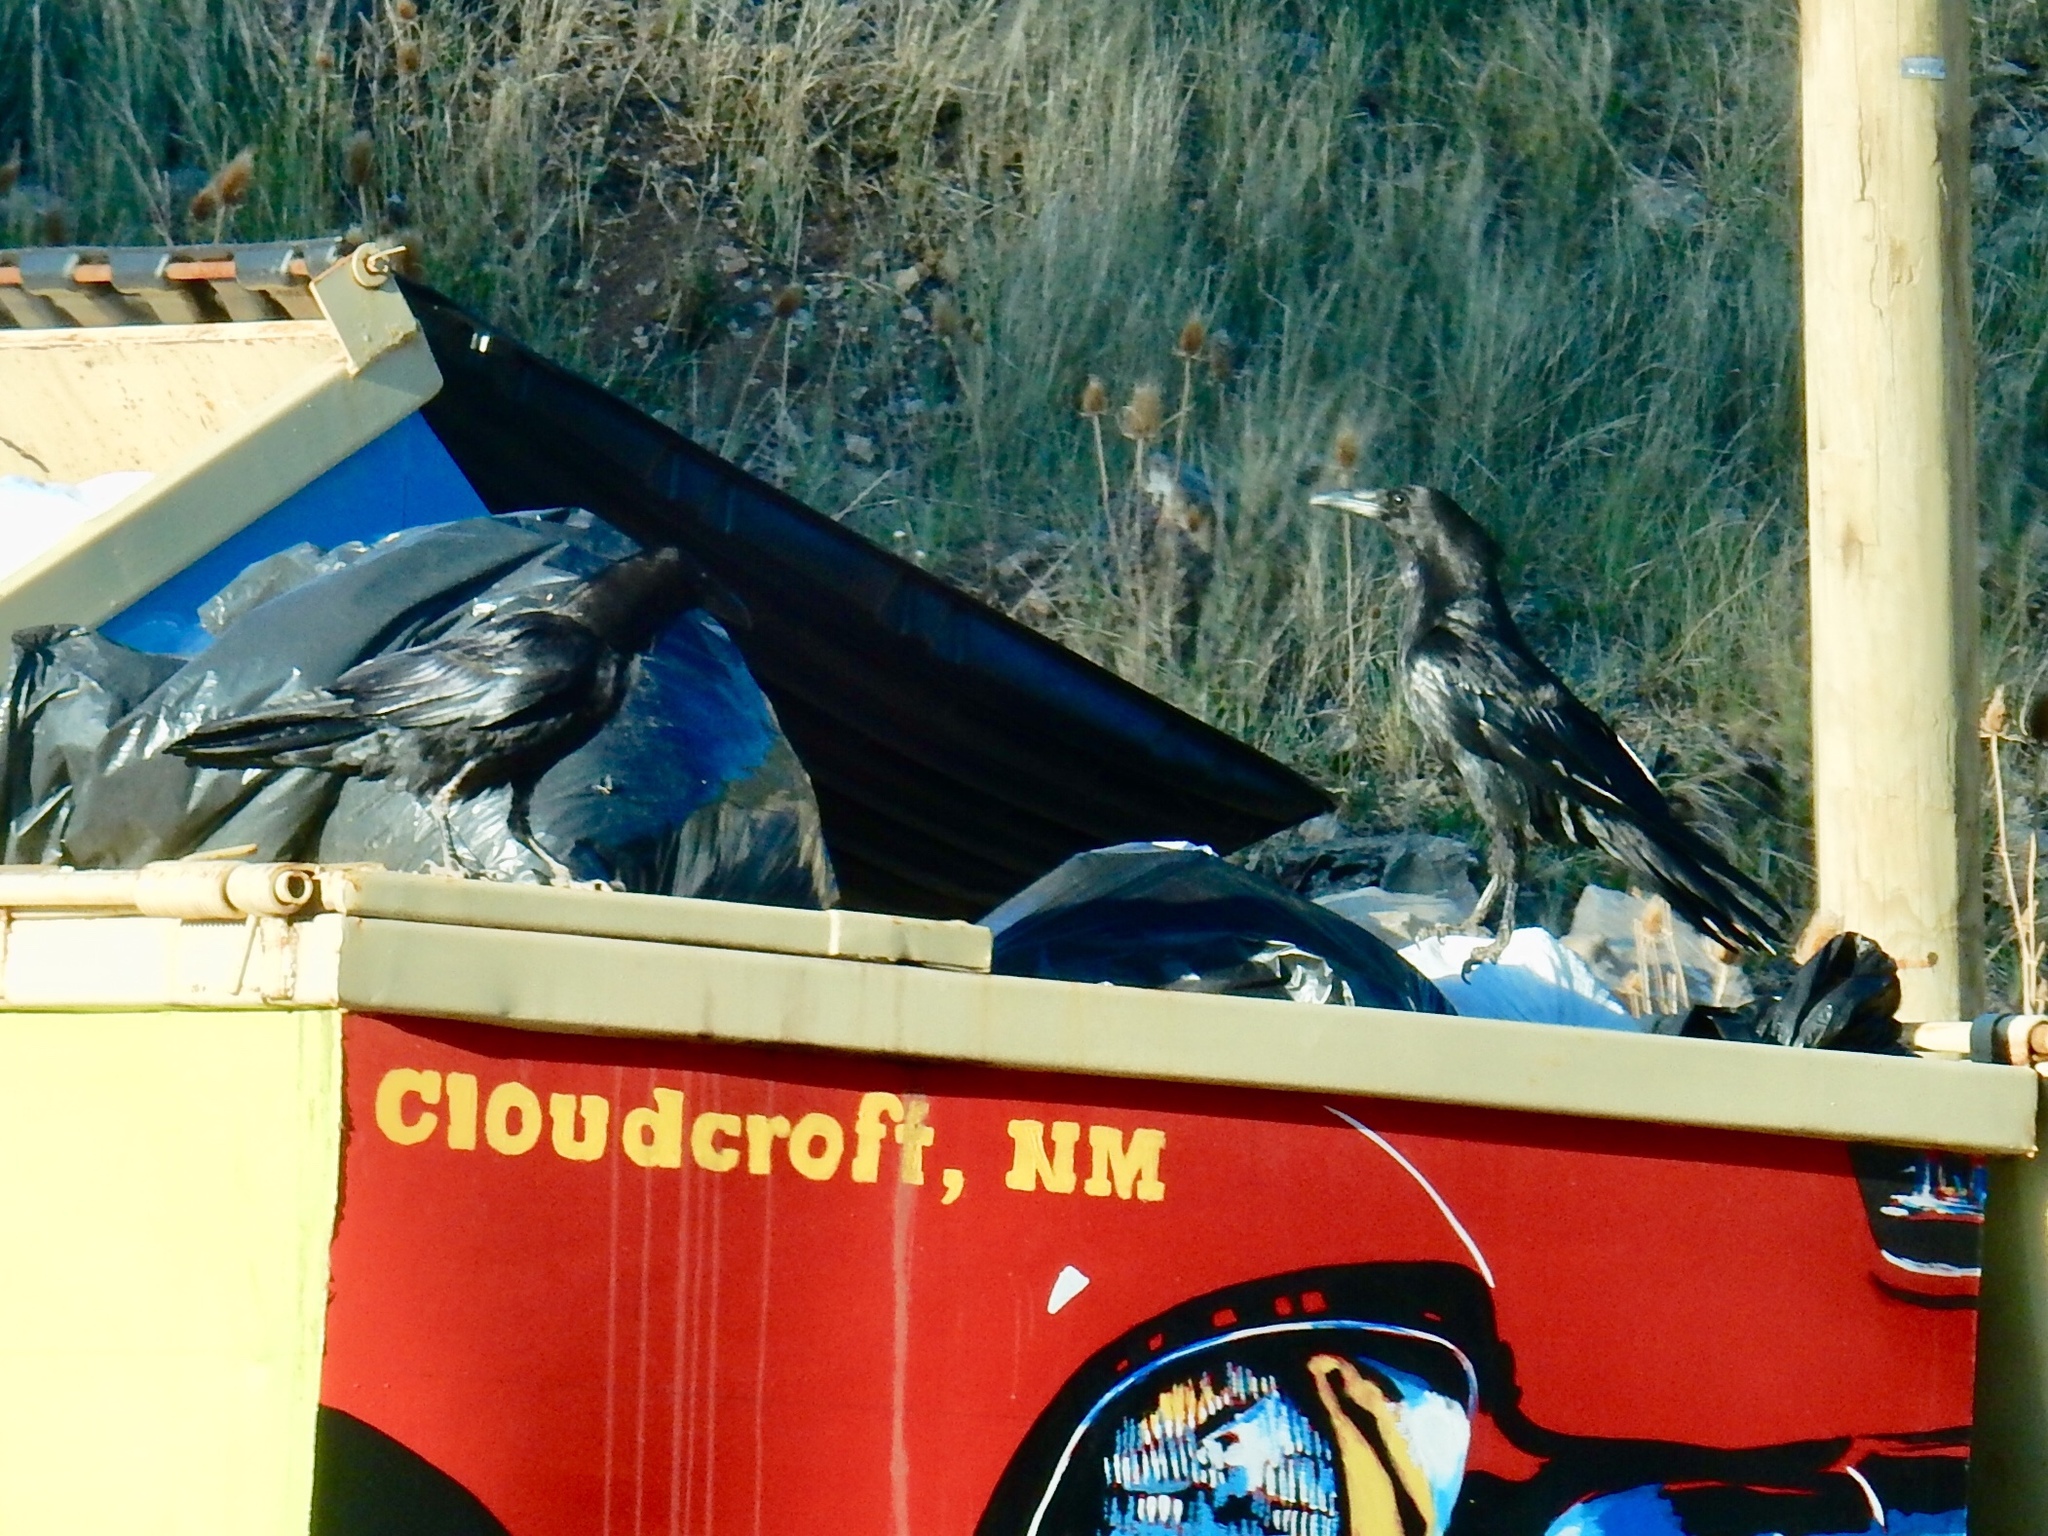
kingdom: Animalia
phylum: Chordata
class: Aves
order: Passeriformes
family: Corvidae
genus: Corvus
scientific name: Corvus corax
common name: Common raven
